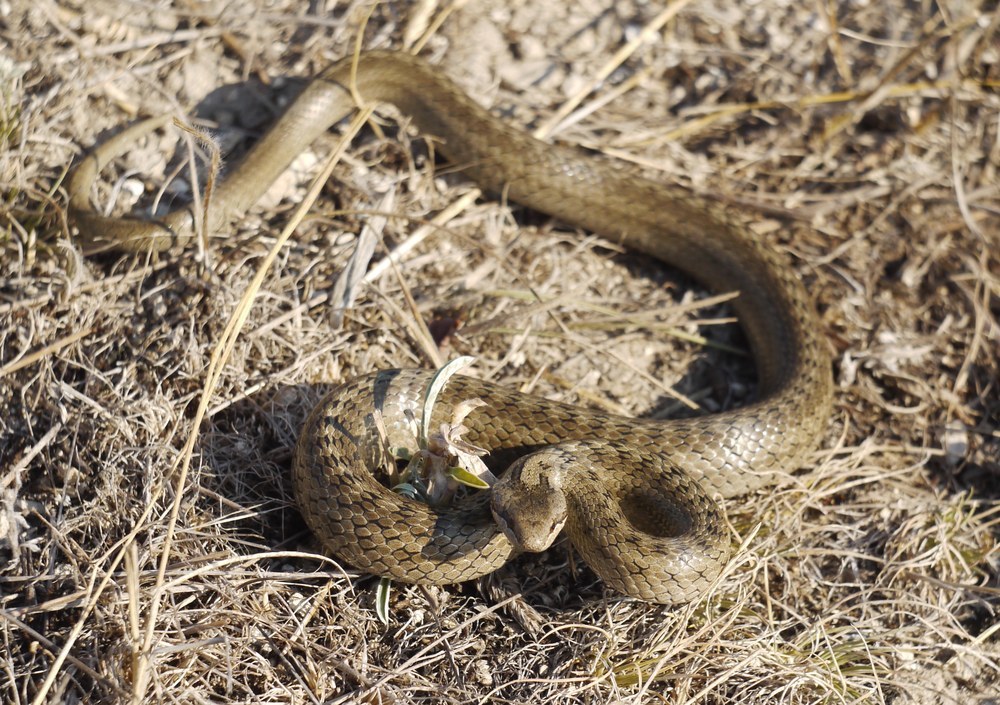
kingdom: Animalia
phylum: Chordata
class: Squamata
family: Colubridae
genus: Coronella
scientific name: Coronella austriaca
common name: Smooth snake
